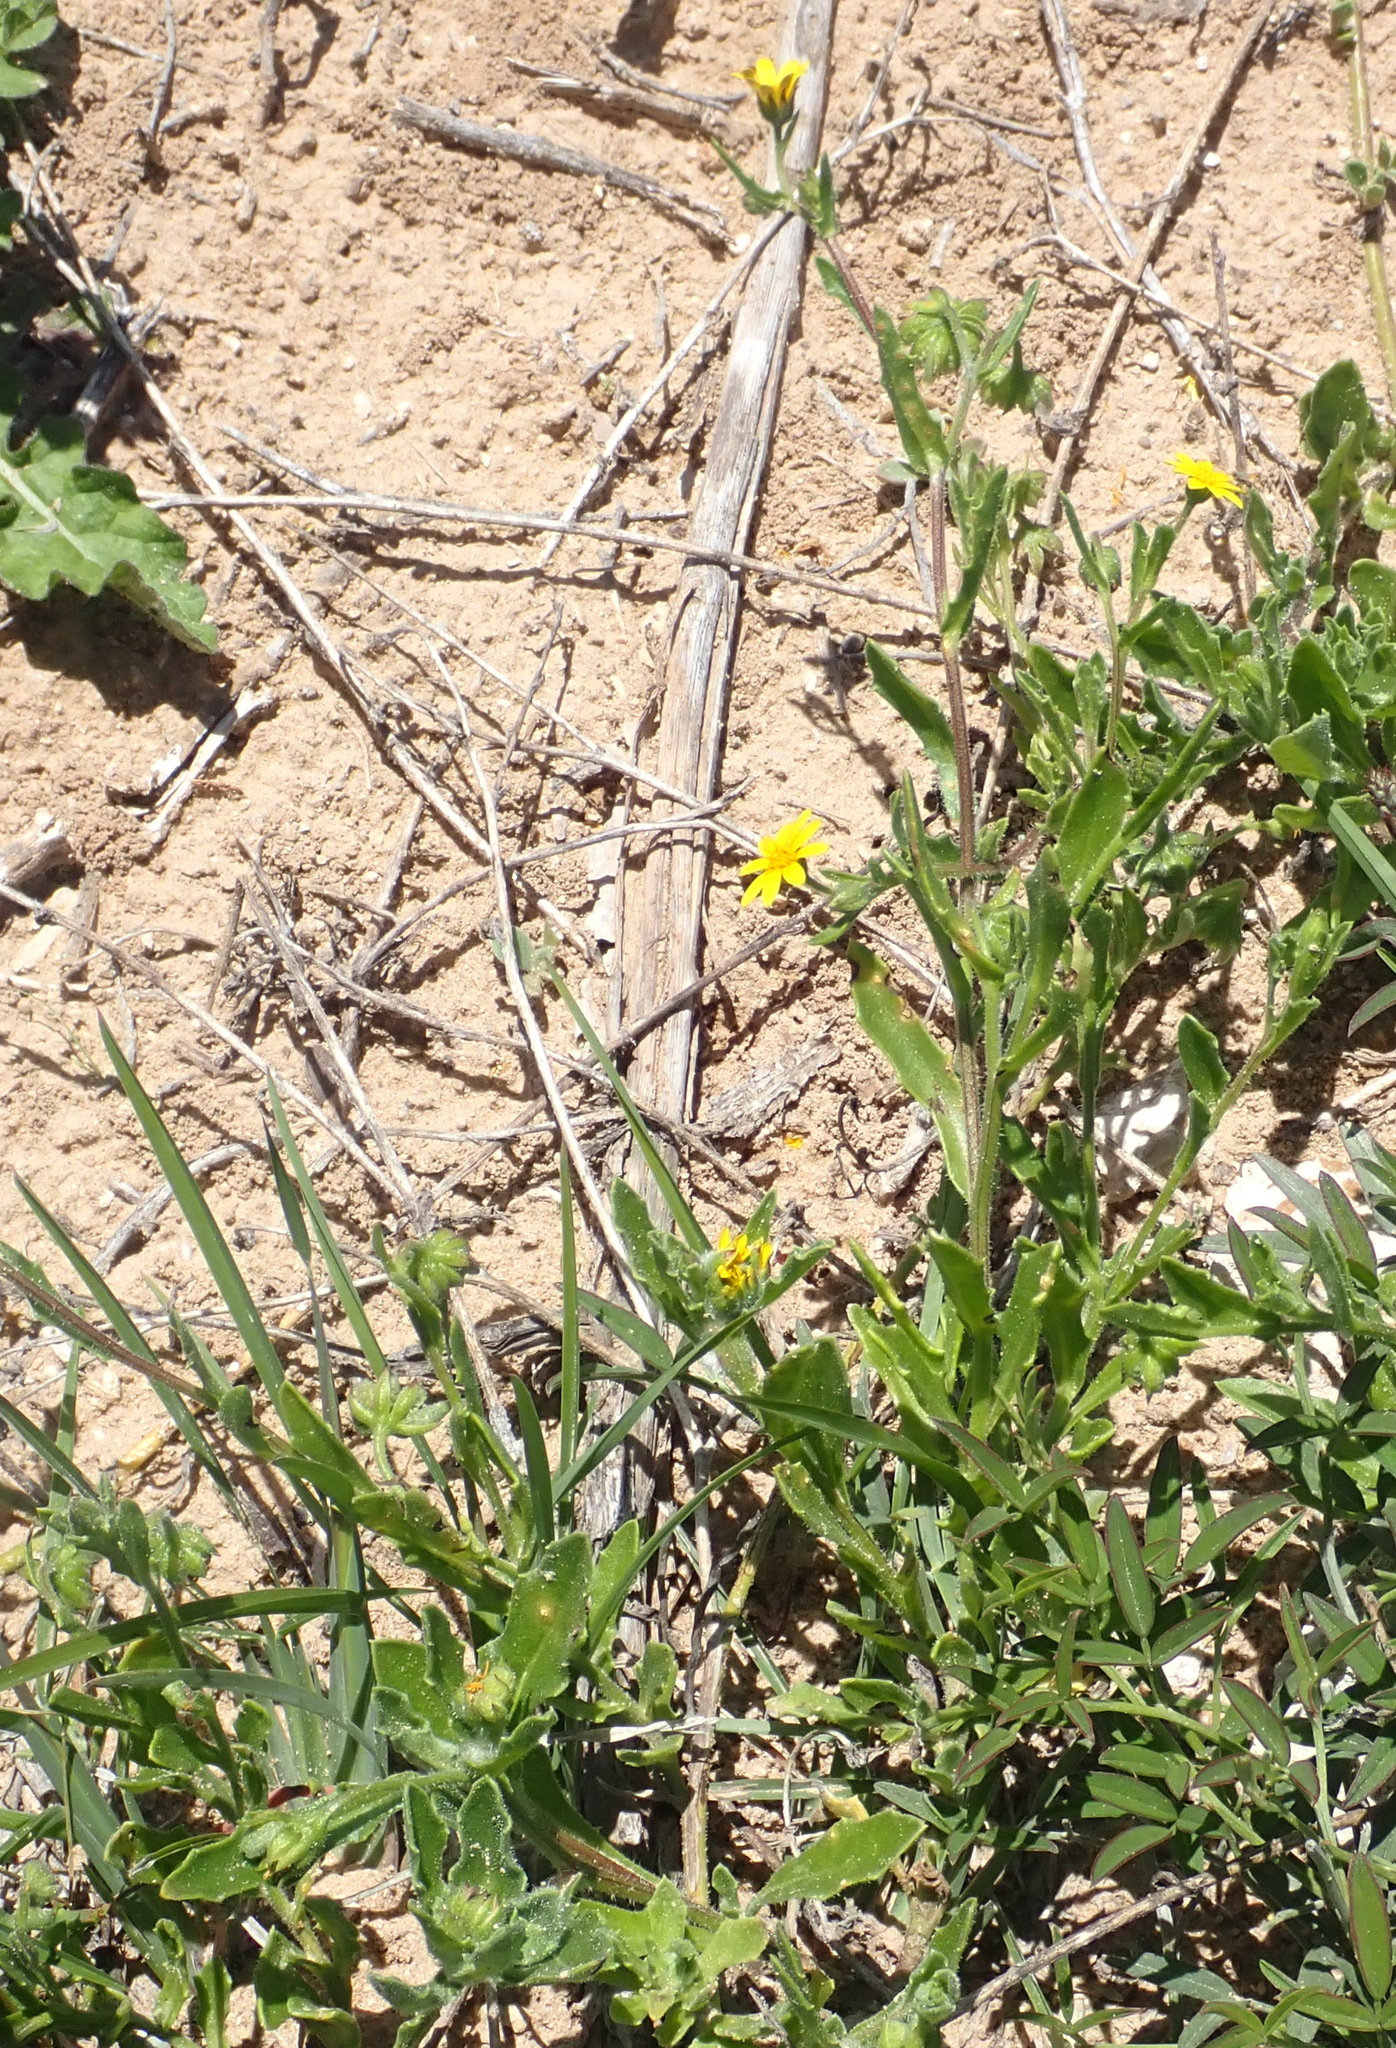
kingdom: Plantae
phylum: Tracheophyta
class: Magnoliopsida
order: Asterales
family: Asteraceae
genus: Osteospermum
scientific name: Osteospermum calendulaceum
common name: Stinking roger
